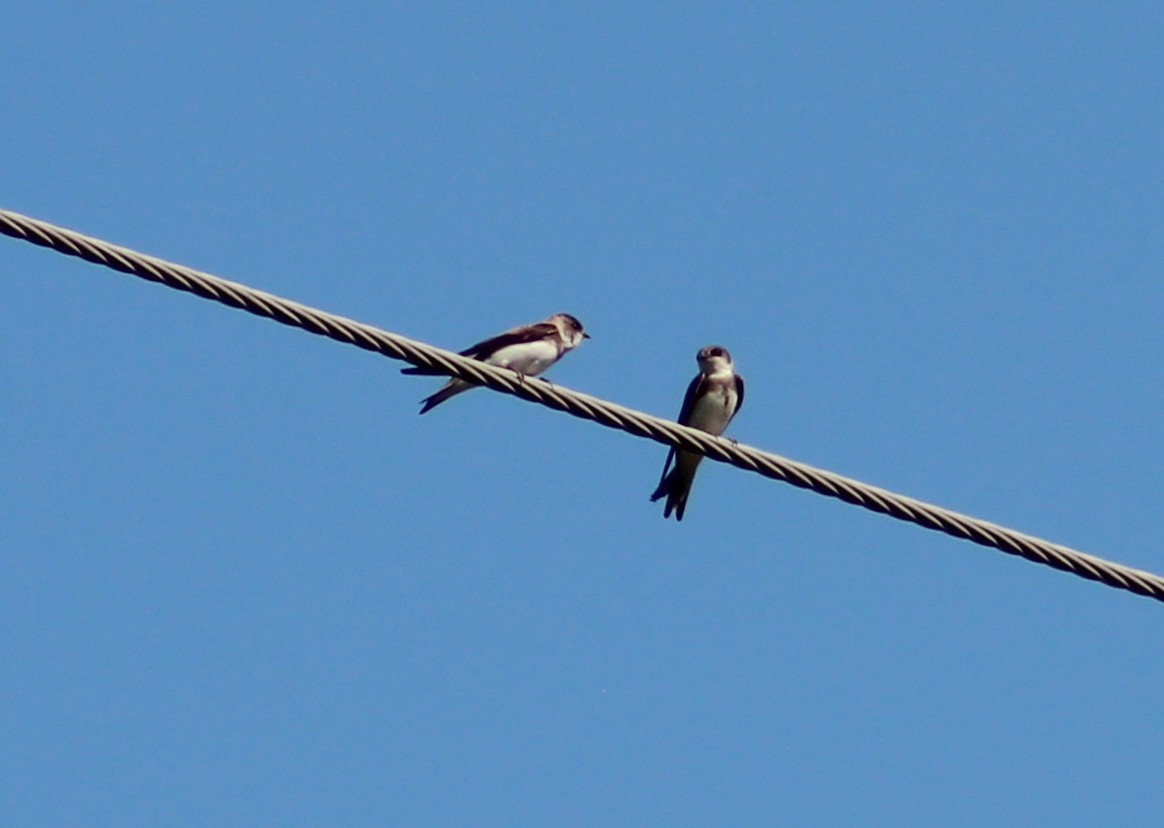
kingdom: Animalia
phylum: Chordata
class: Aves
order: Passeriformes
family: Hirundinidae
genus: Riparia
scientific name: Riparia riparia
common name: Sand martin
